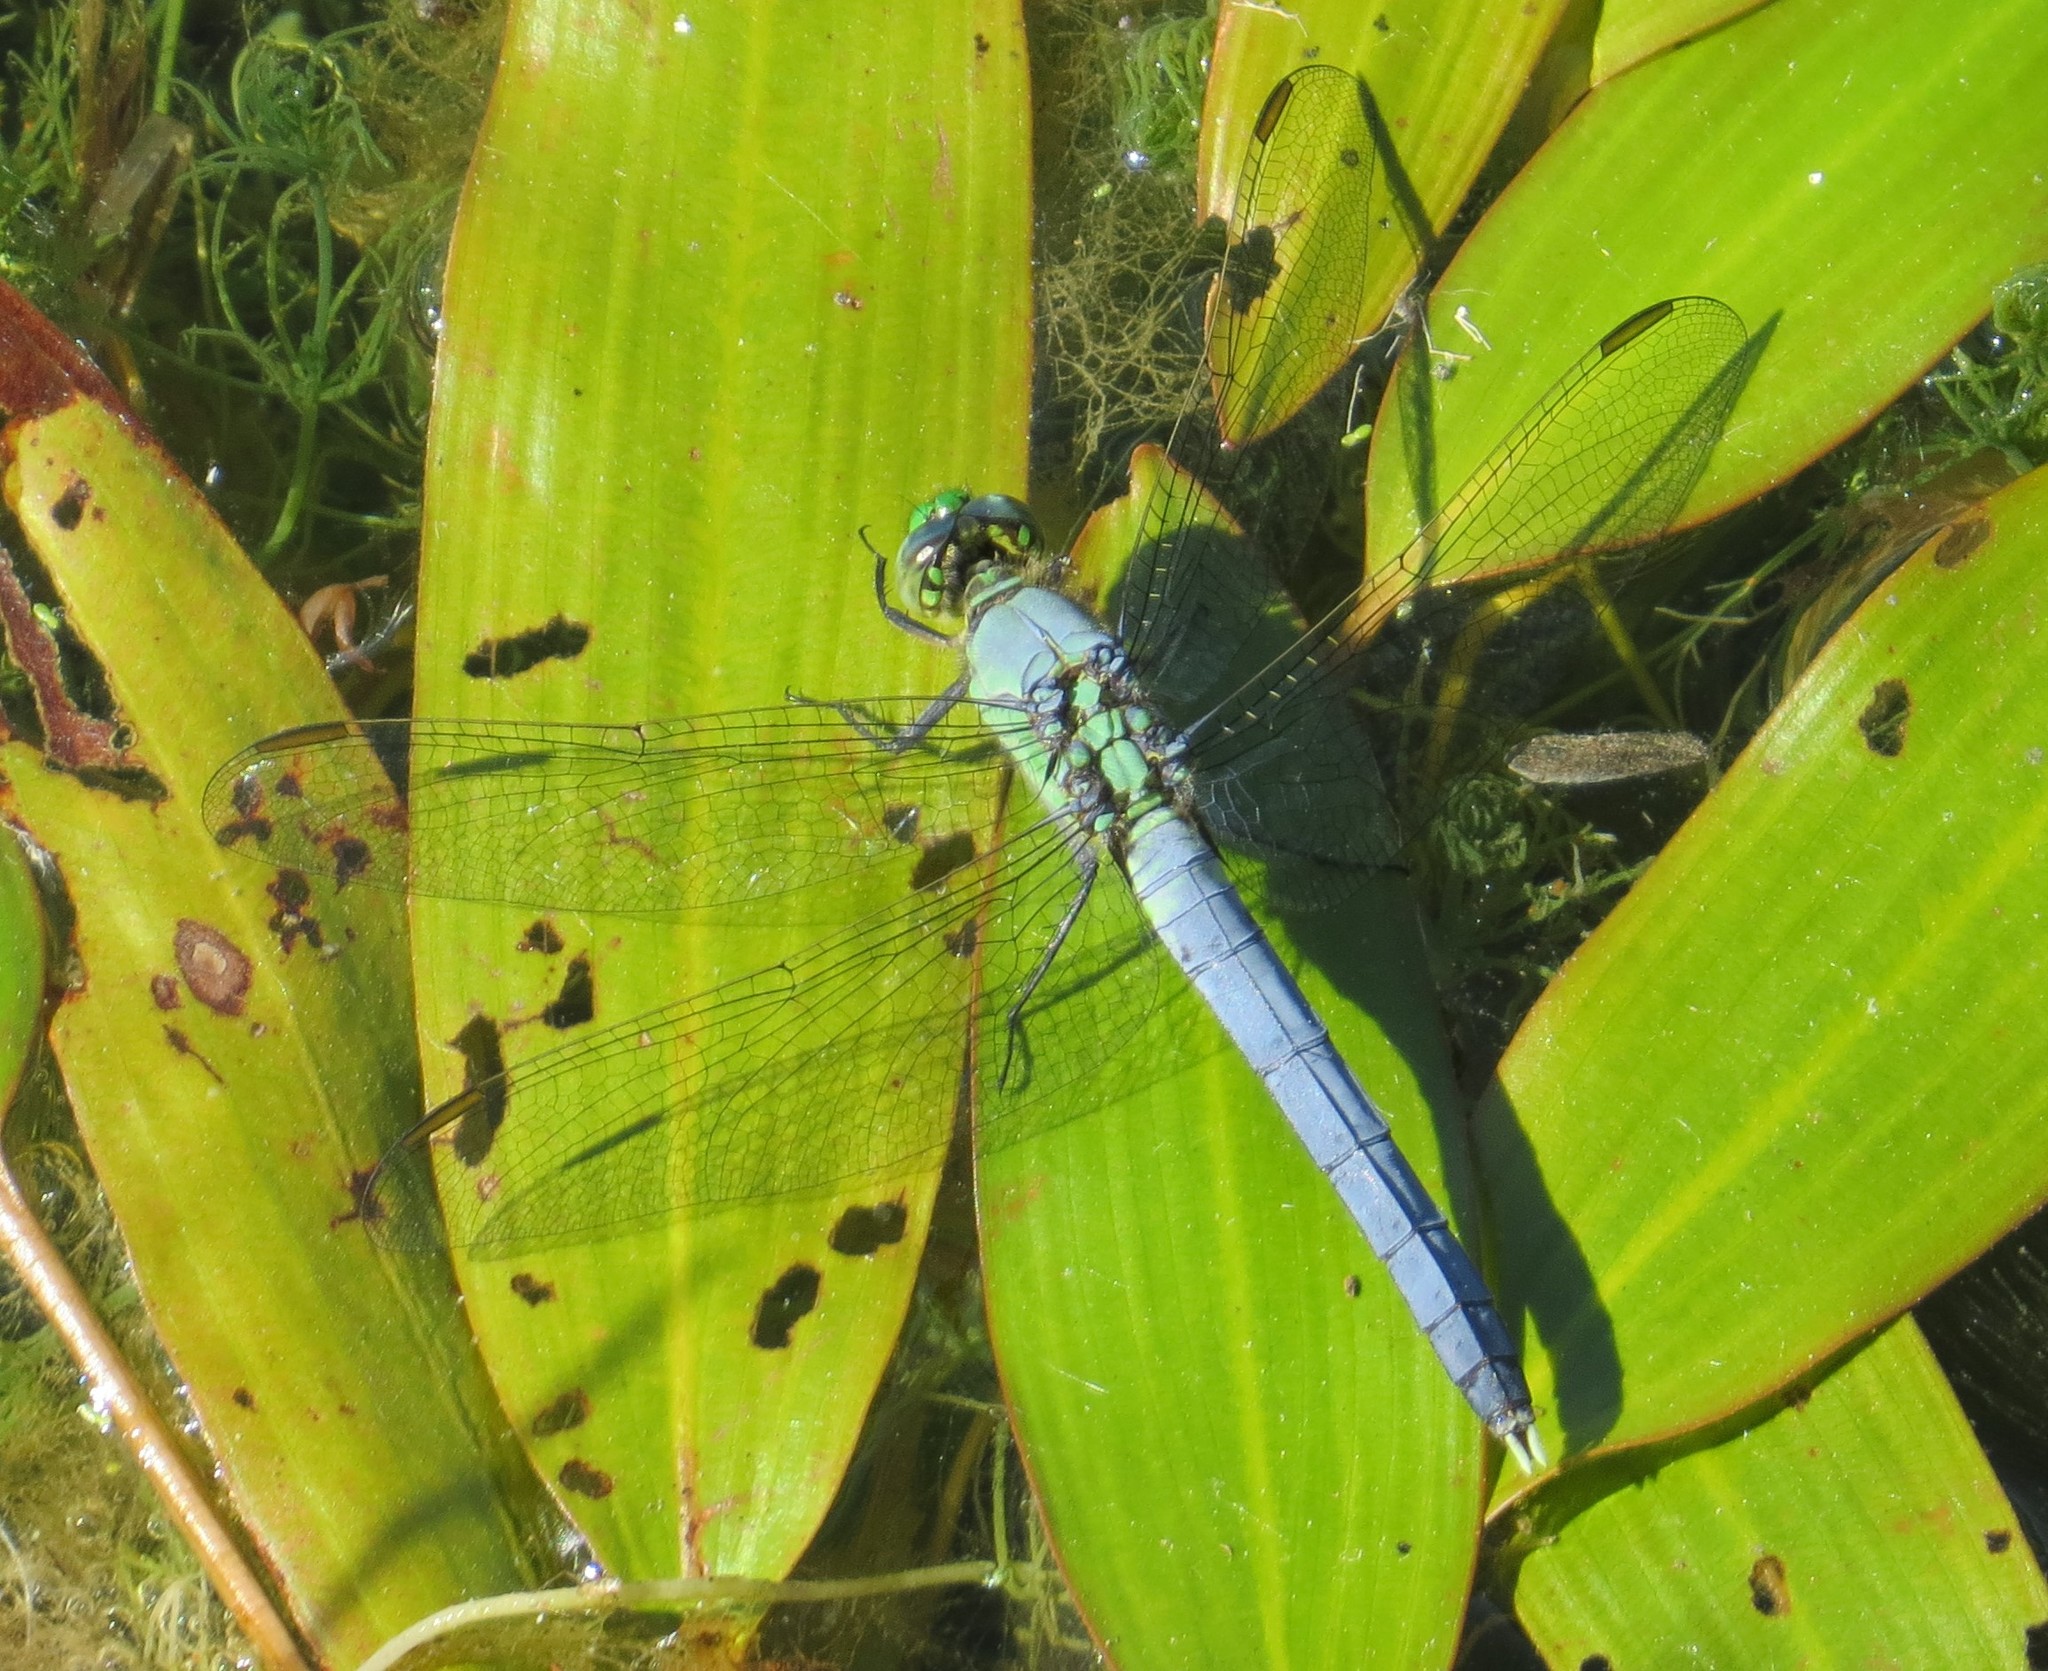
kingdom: Animalia
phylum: Arthropoda
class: Insecta
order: Odonata
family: Libellulidae
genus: Erythemis
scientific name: Erythemis simplicicollis
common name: Eastern pondhawk
